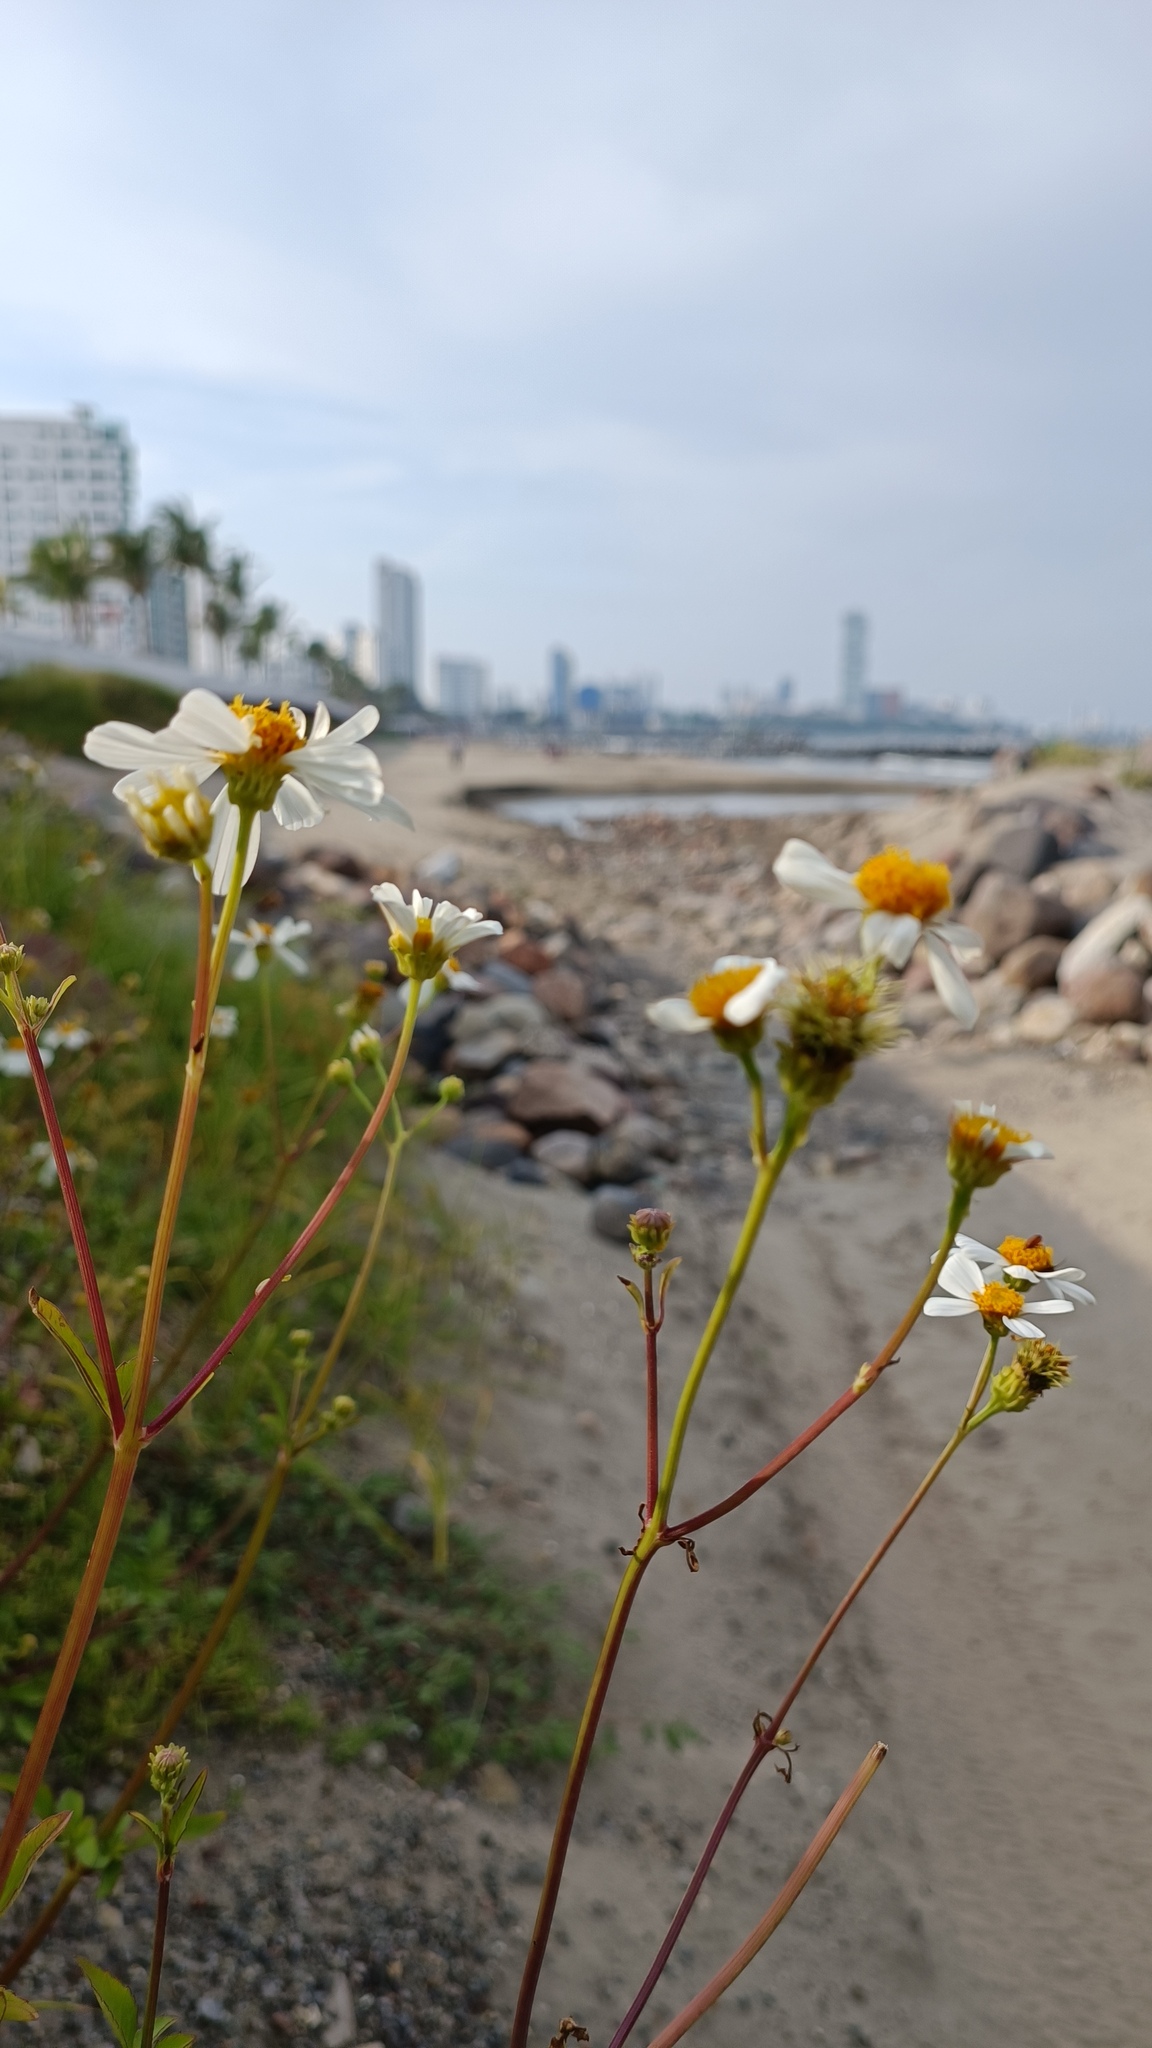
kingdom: Plantae
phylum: Tracheophyta
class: Magnoliopsida
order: Asterales
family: Asteraceae
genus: Bidens
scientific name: Bidens alba
